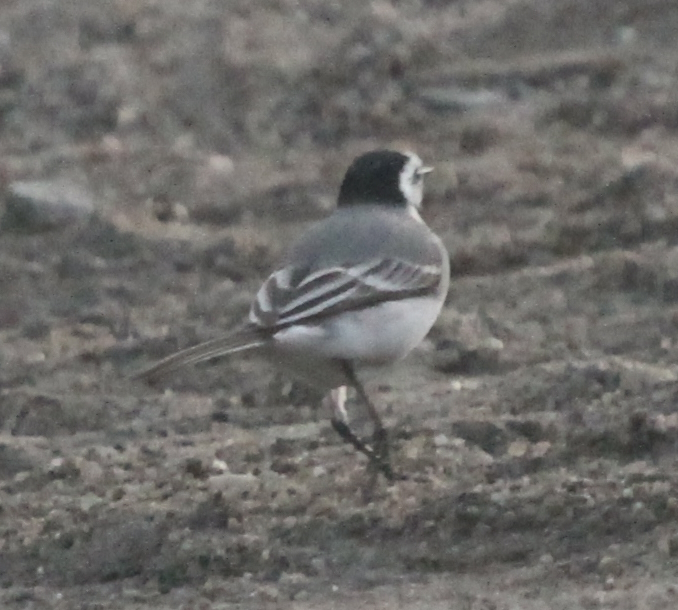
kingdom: Animalia
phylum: Chordata
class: Aves
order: Passeriformes
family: Motacillidae
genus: Motacilla
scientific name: Motacilla alba
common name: White wagtail
